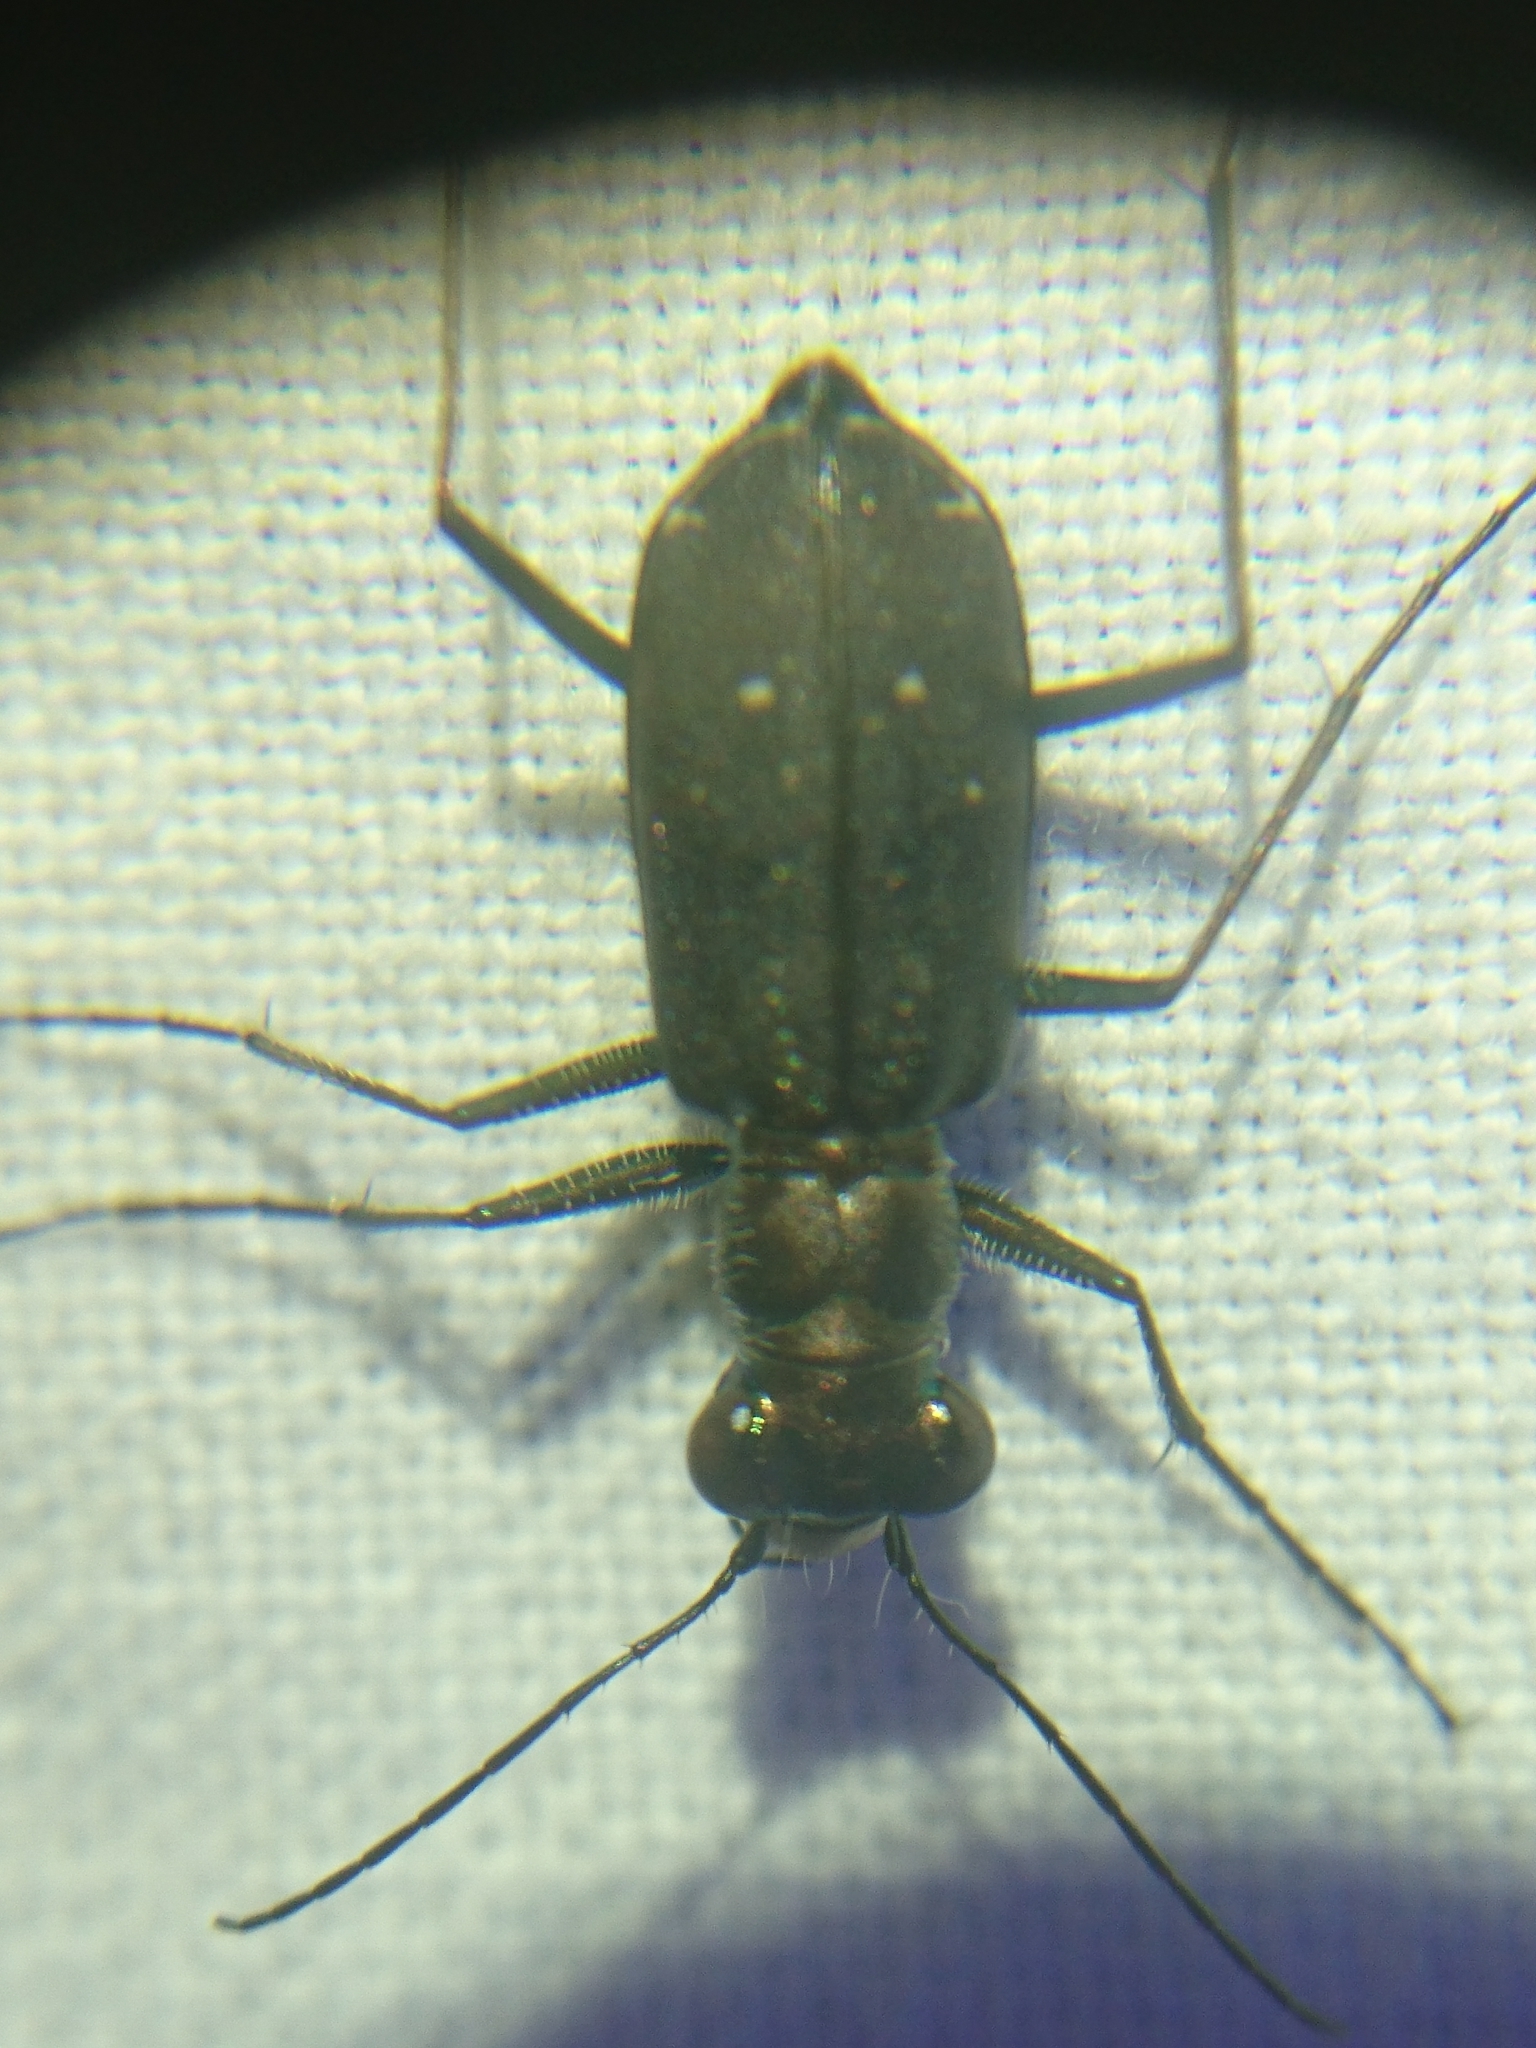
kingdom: Animalia
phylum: Arthropoda
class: Insecta
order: Coleoptera
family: Carabidae
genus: Cicindela
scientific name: Cicindela punctulata
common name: Punctured tiger beetle
